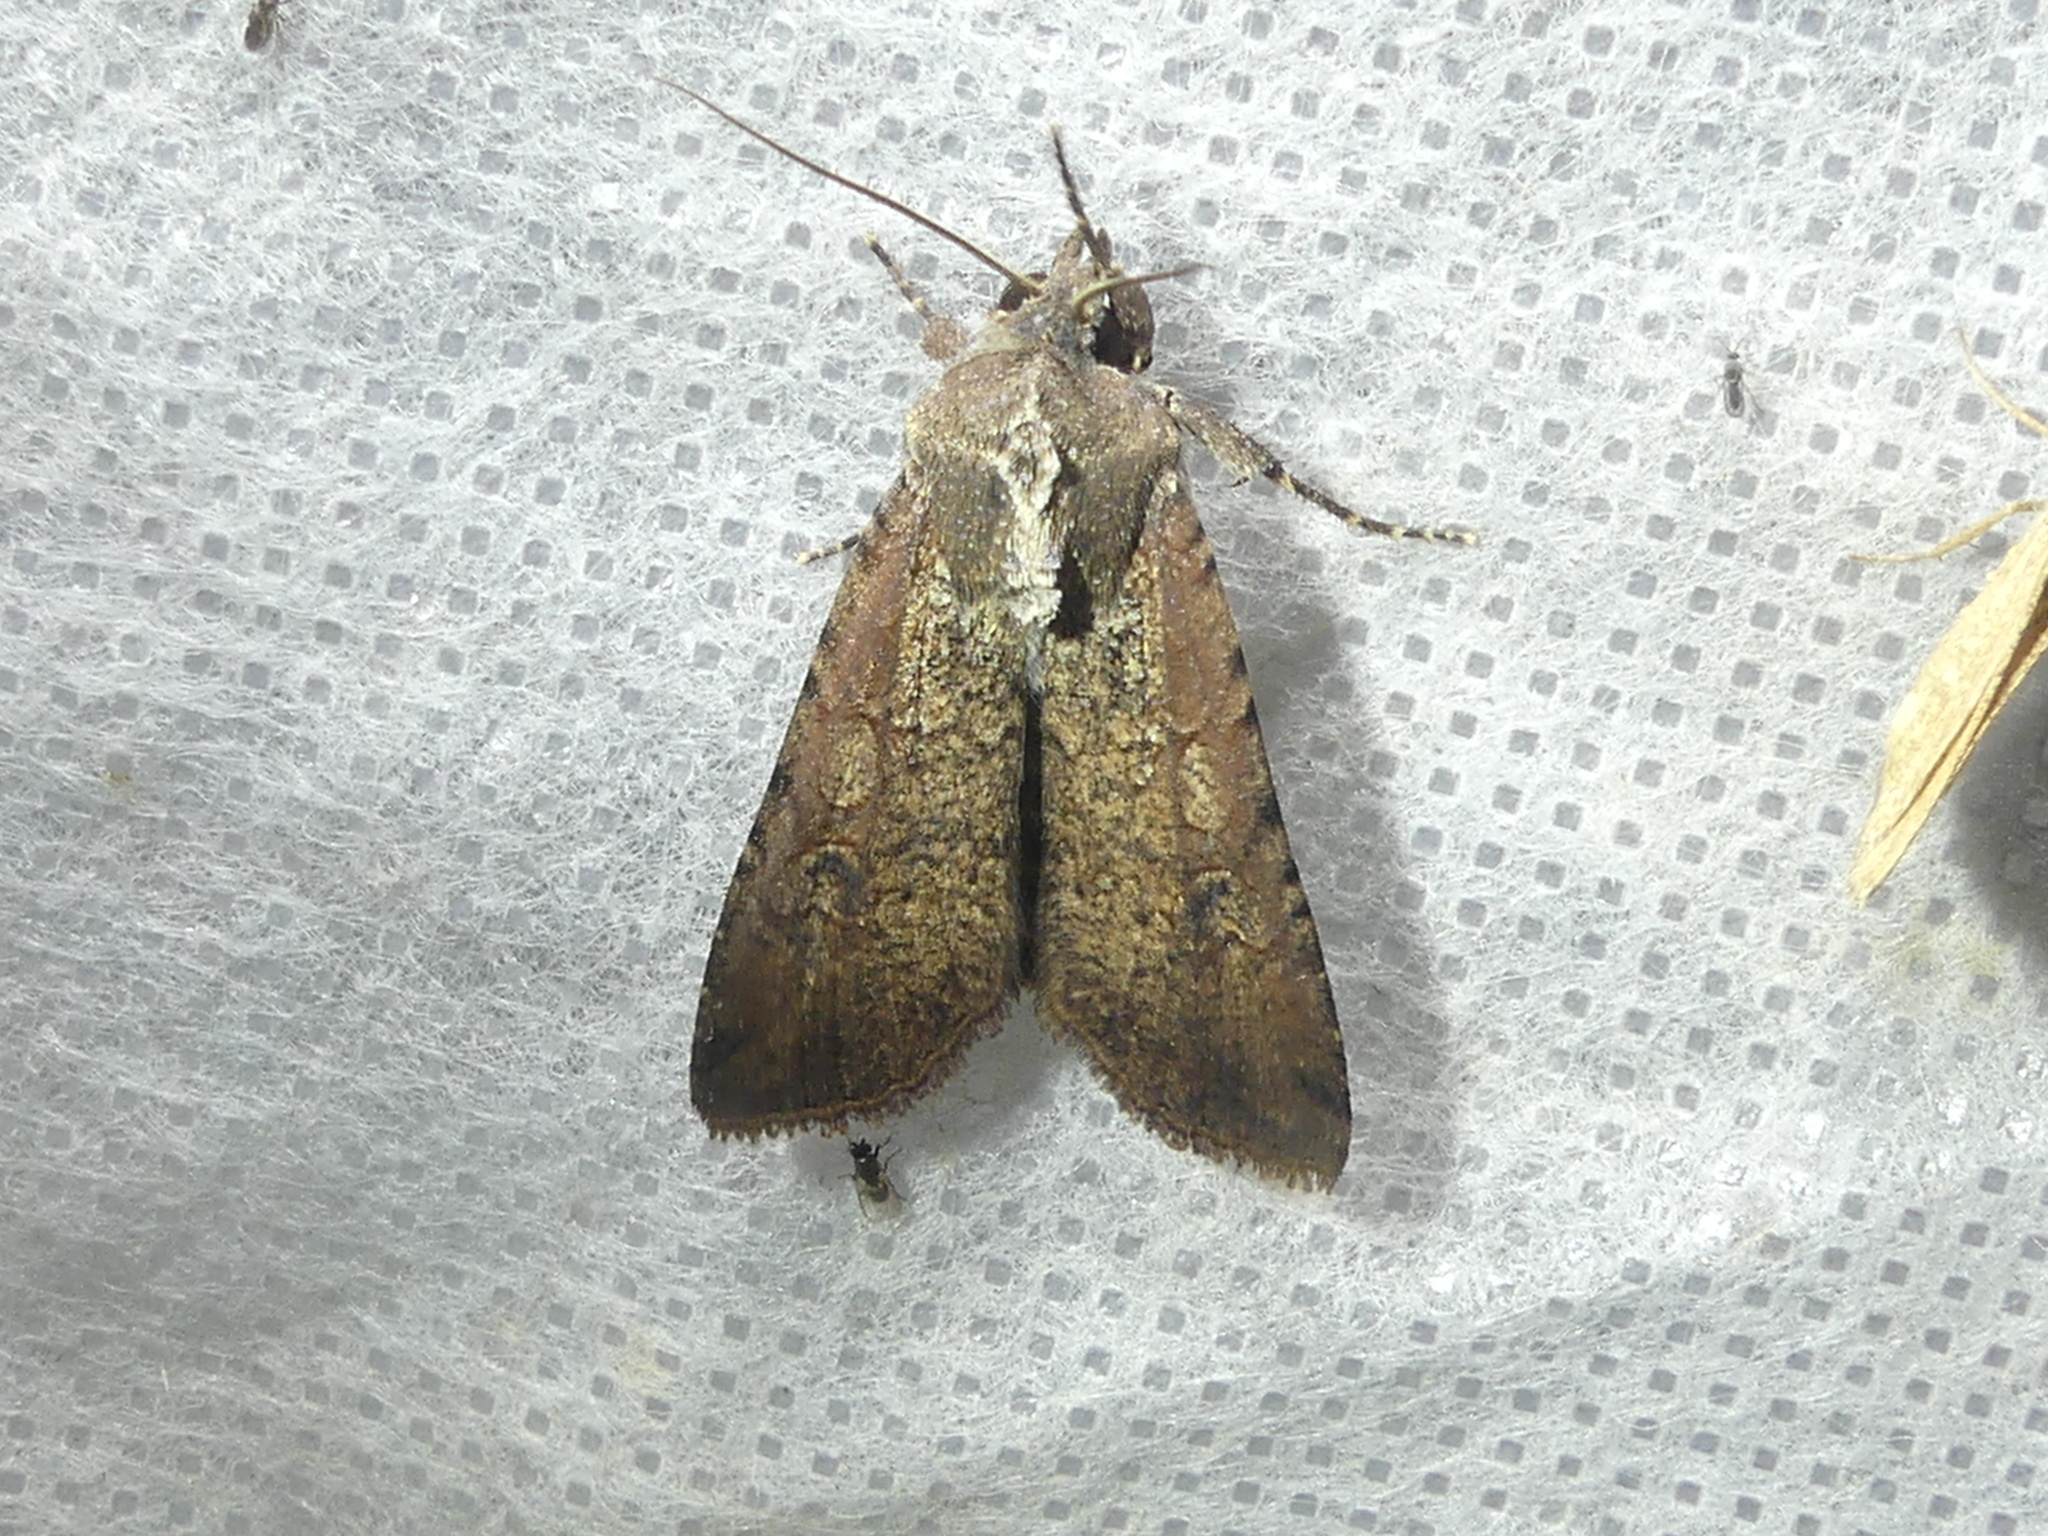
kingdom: Animalia
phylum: Arthropoda
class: Insecta
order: Lepidoptera
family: Noctuidae
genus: Peridroma
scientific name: Peridroma saucia
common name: Pearly underwing
